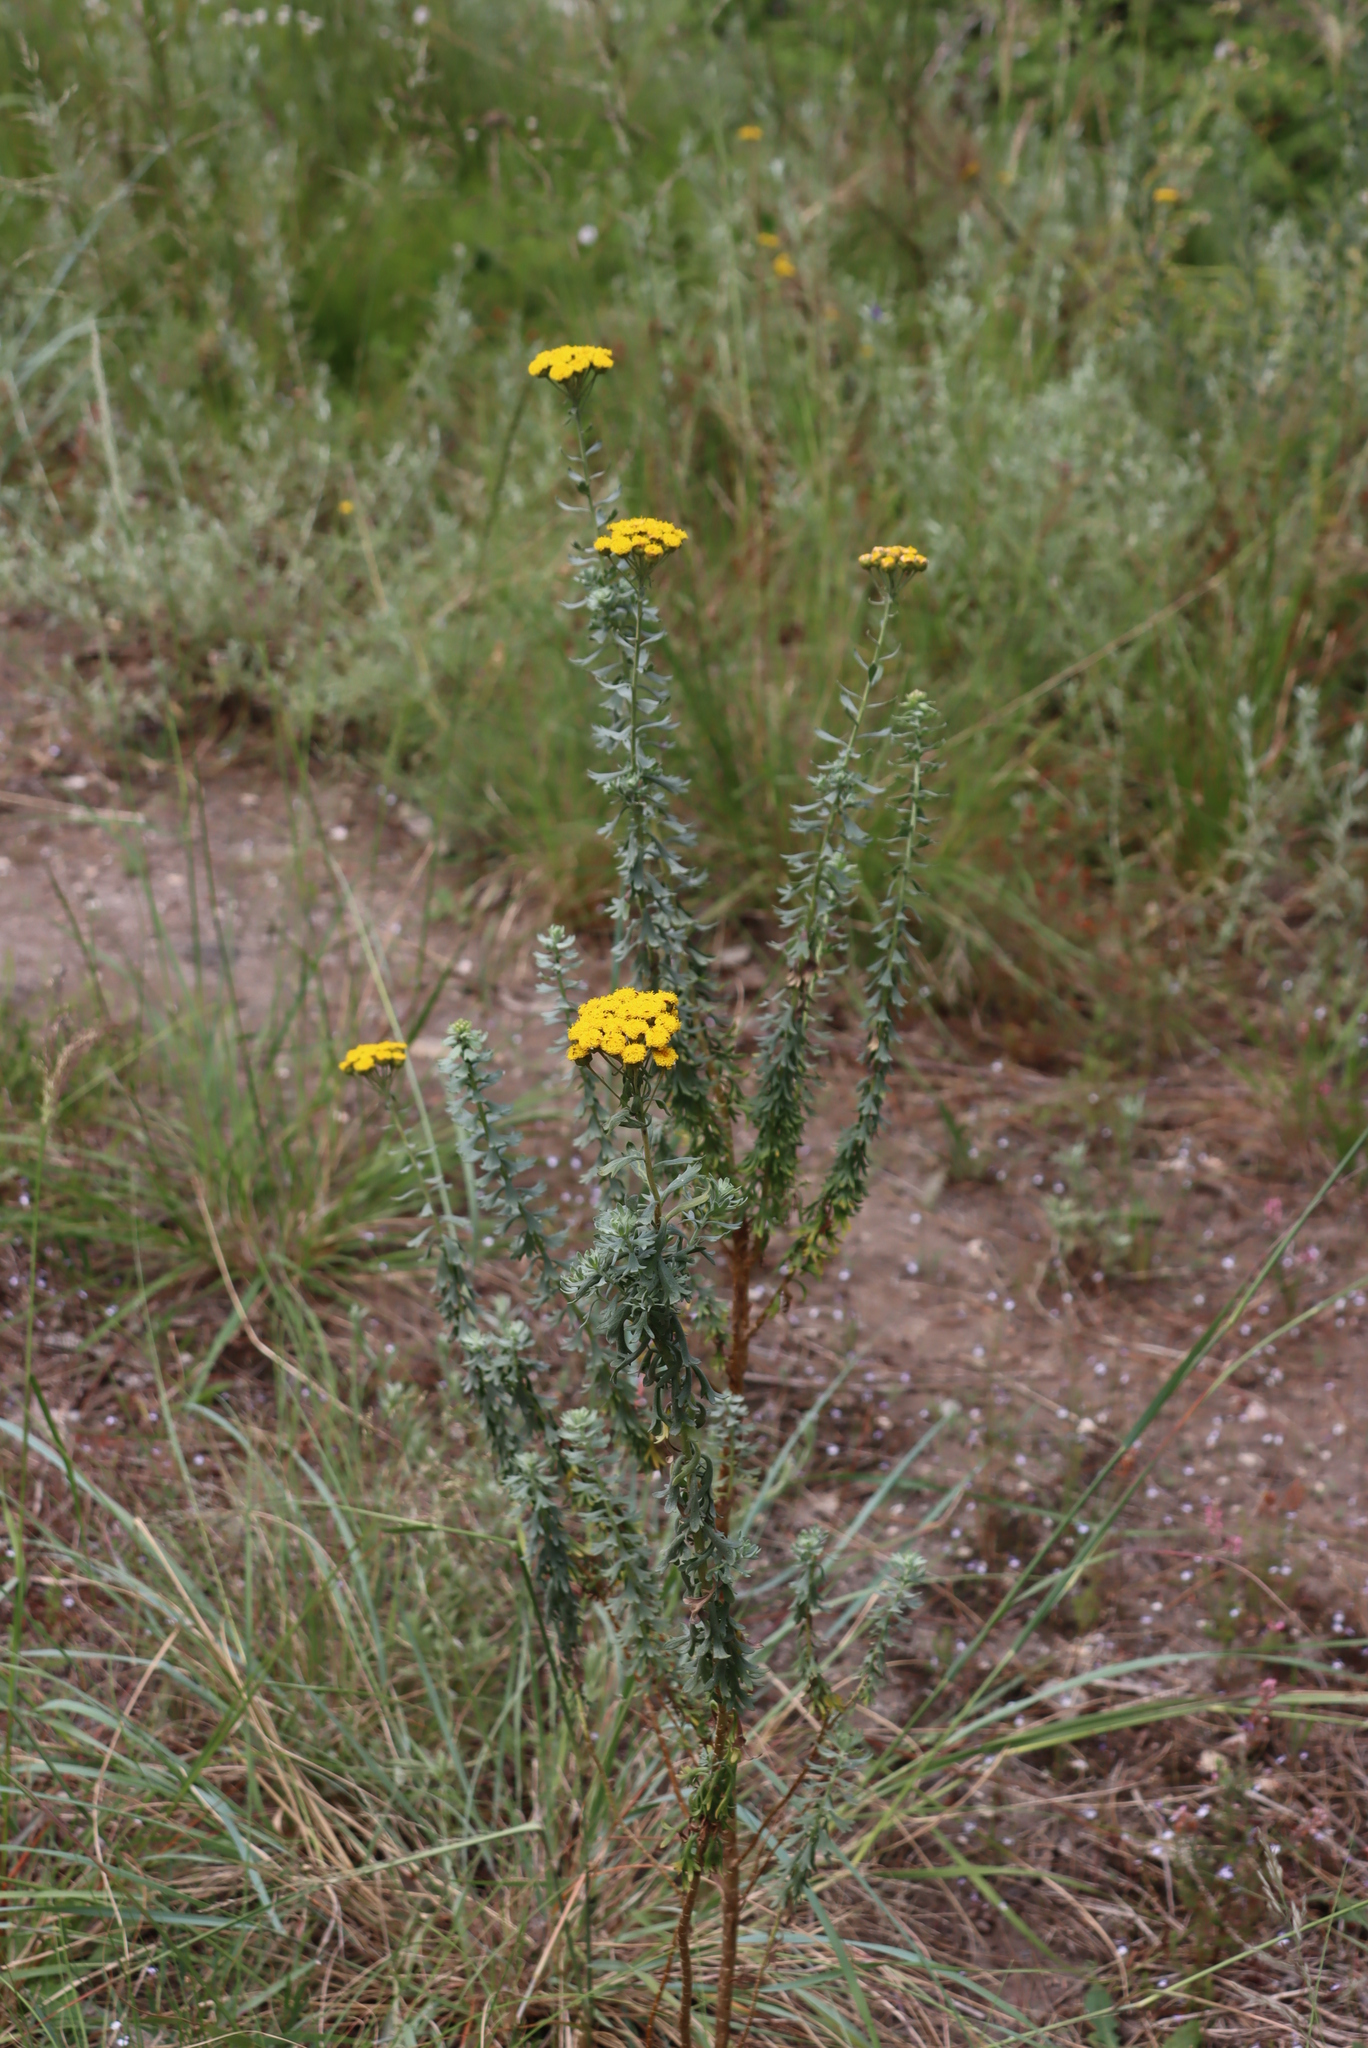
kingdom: Plantae
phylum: Tracheophyta
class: Magnoliopsida
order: Asterales
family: Asteraceae
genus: Athanasia
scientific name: Athanasia trifurcata
